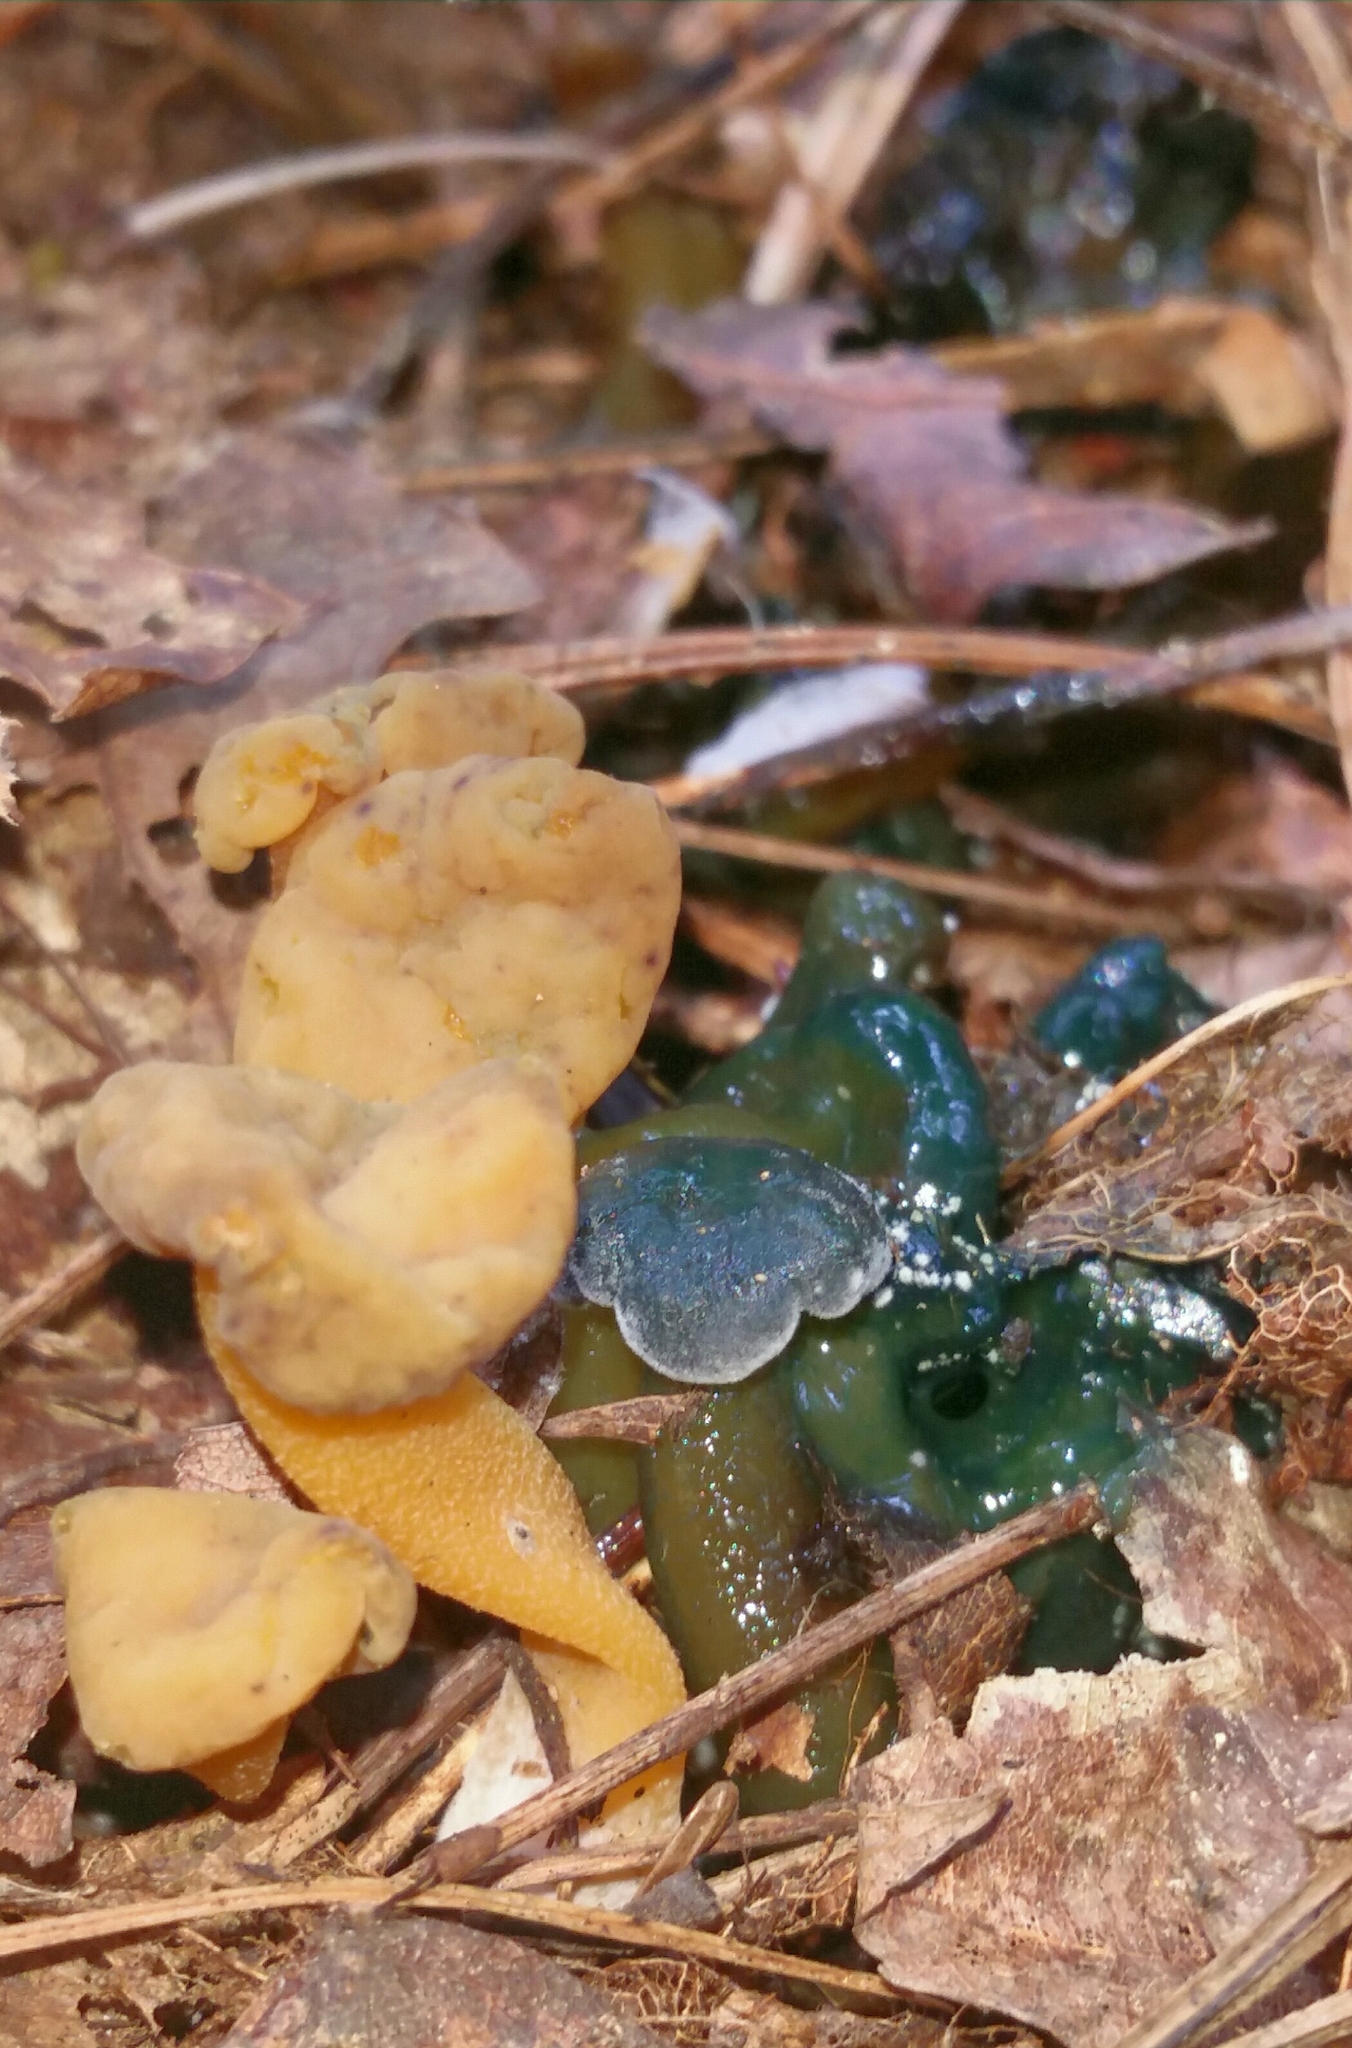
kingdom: Fungi
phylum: Ascomycota
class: Leotiomycetes
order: Leotiales
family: Leotiaceae
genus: Leotia
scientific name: Leotia lubrica
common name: Jellybaby
